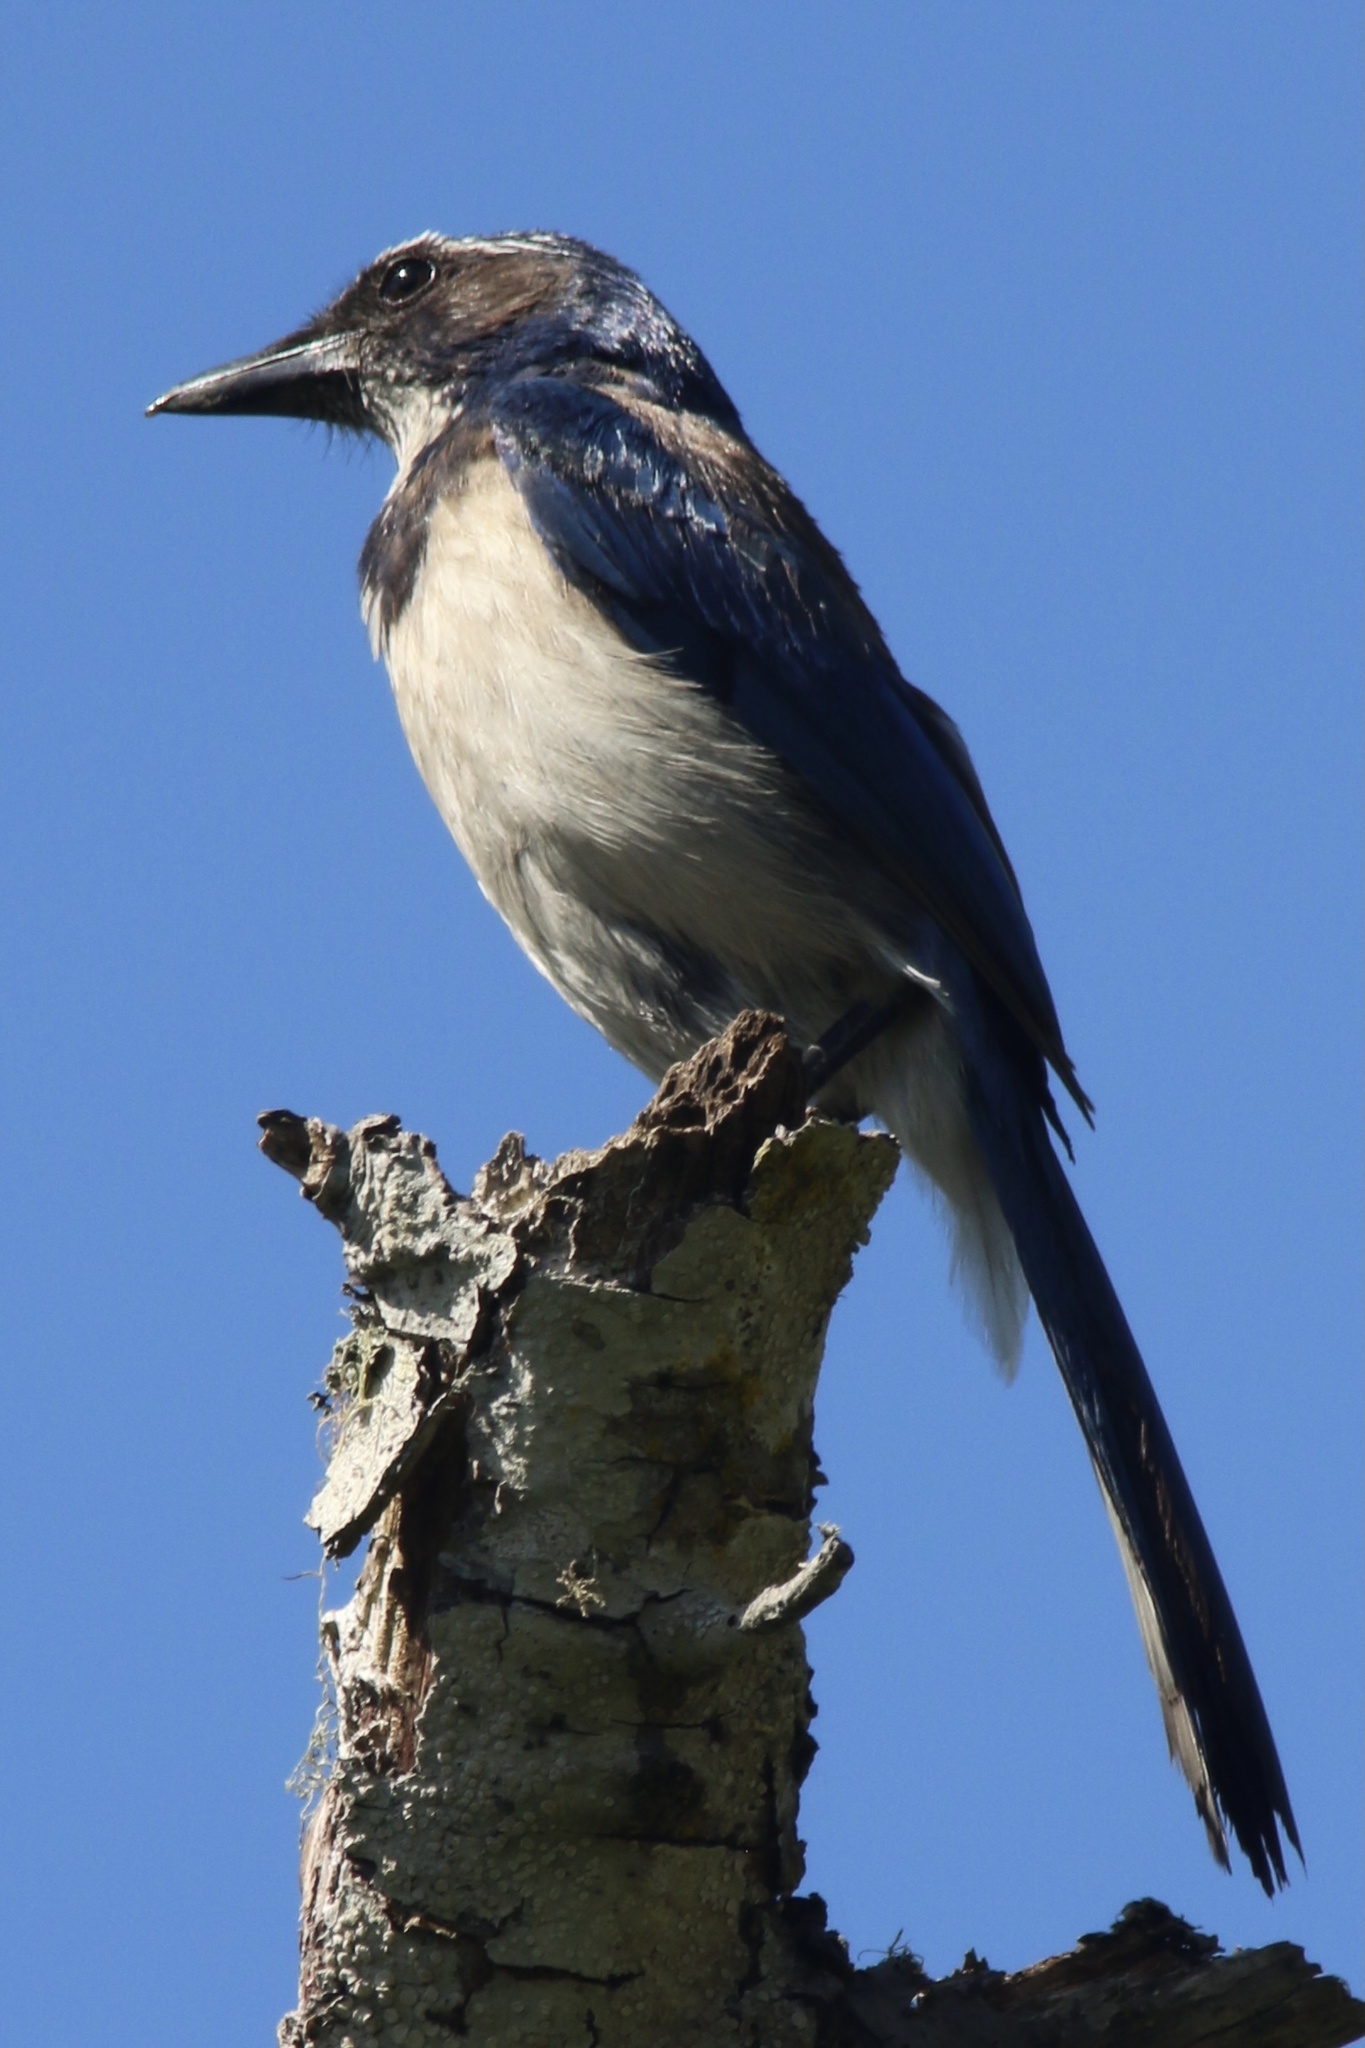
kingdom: Animalia
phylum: Chordata
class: Aves
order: Passeriformes
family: Corvidae
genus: Aphelocoma
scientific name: Aphelocoma californica
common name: California scrub-jay
